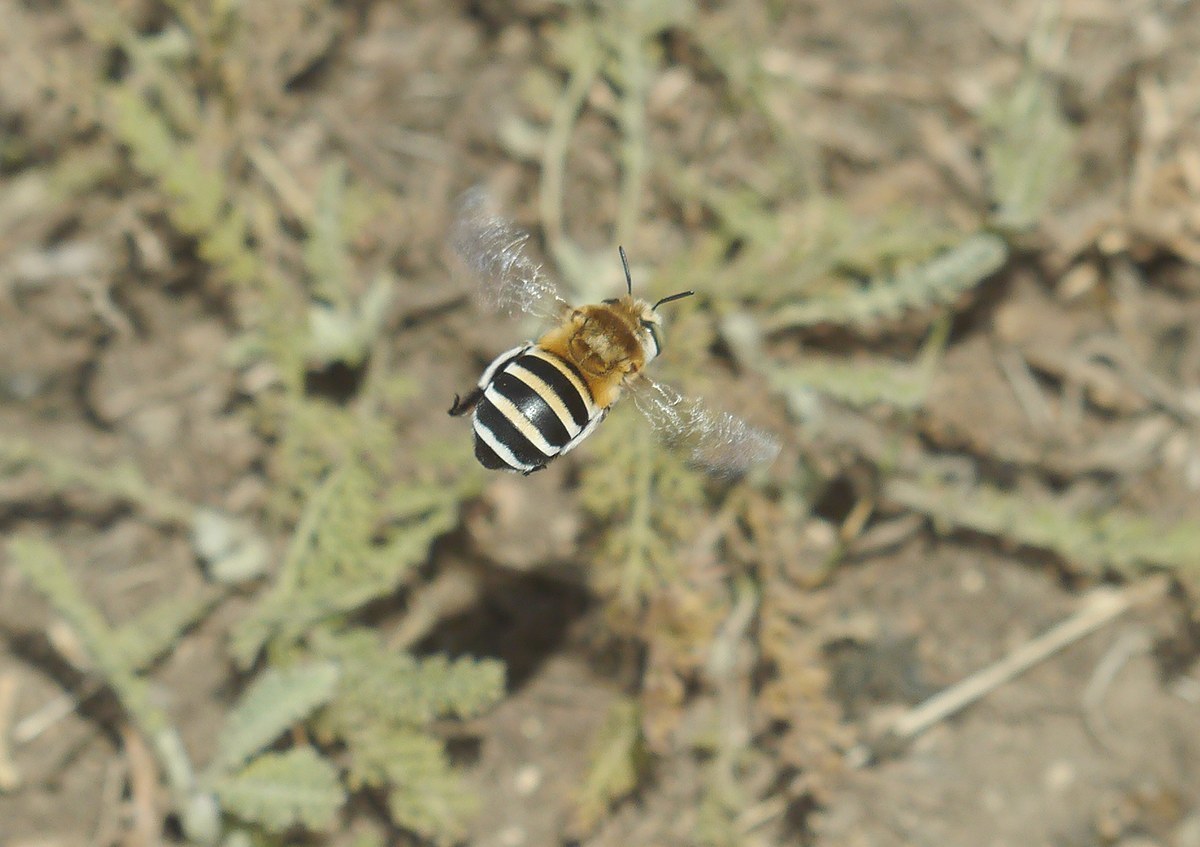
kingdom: Animalia
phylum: Arthropoda
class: Insecta
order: Hymenoptera
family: Apidae
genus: Amegilla
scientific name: Amegilla quadrifasciata
